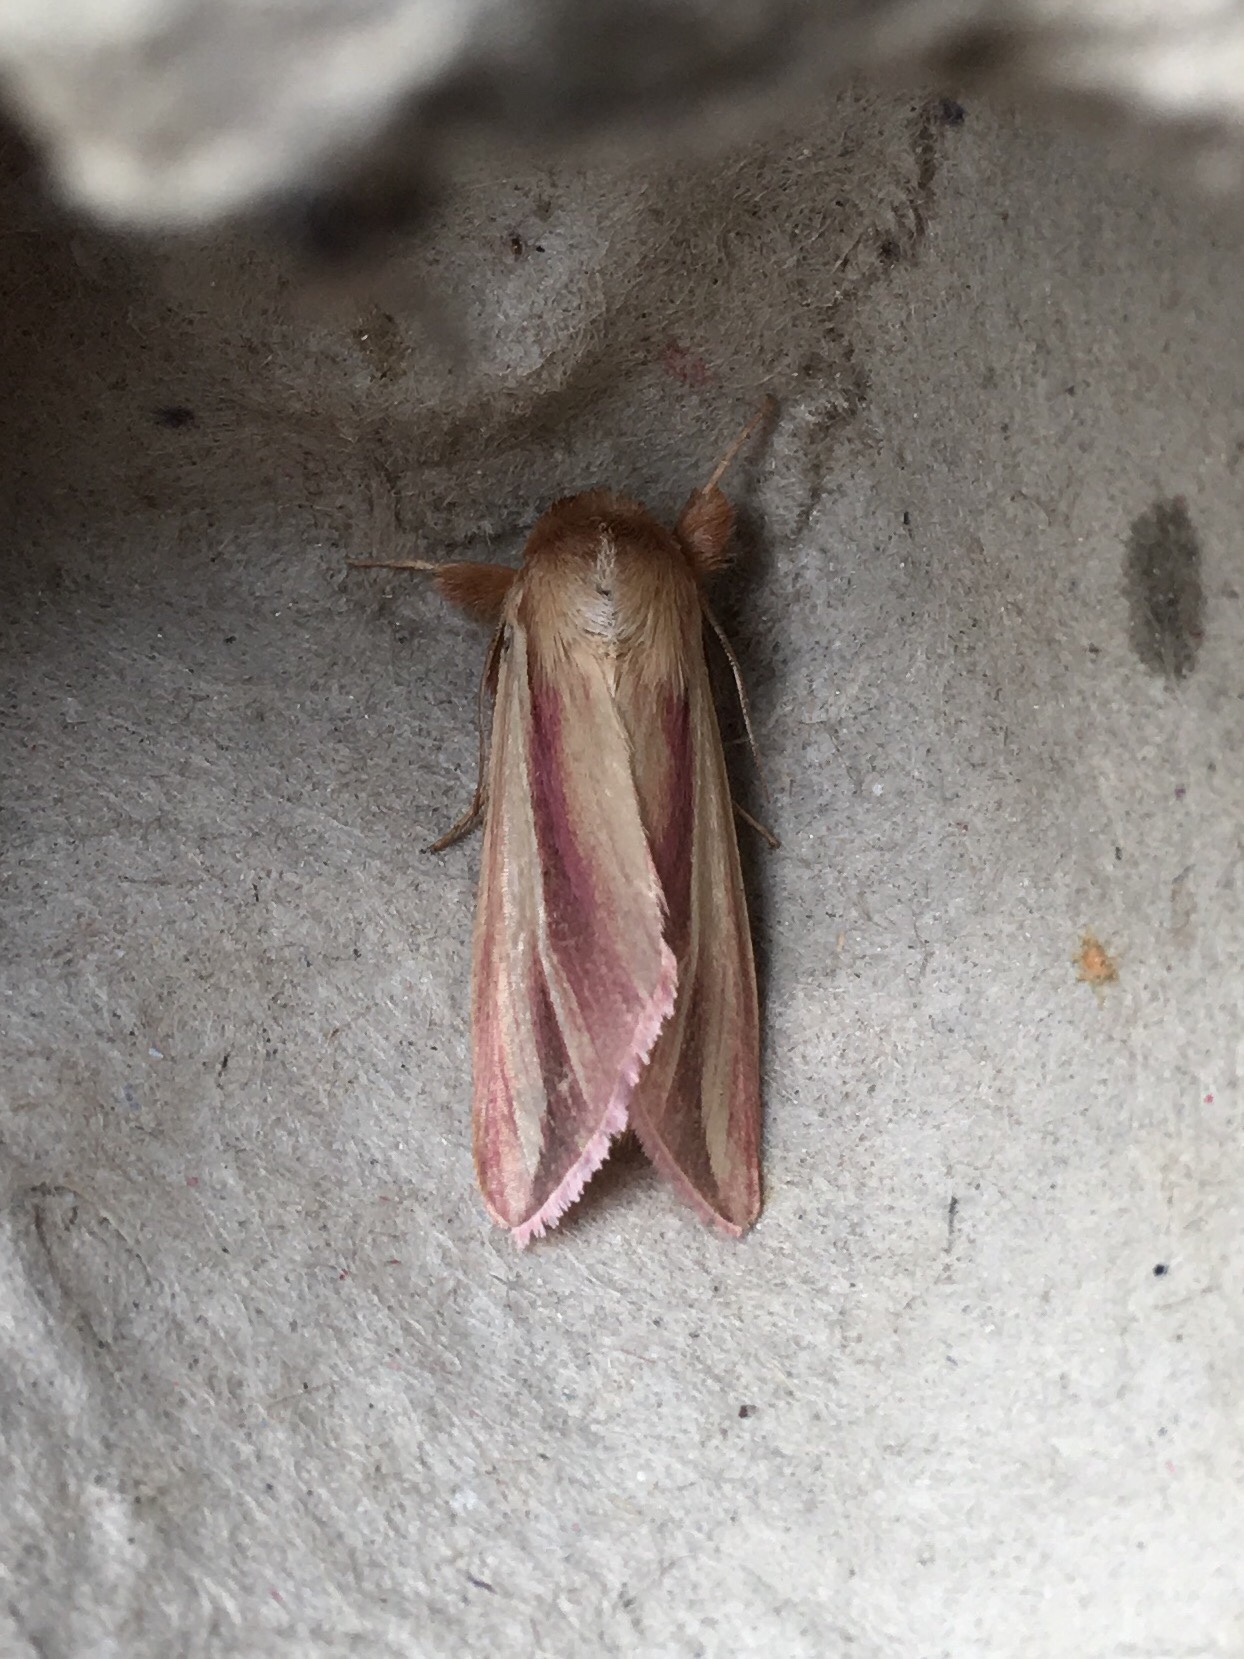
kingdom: Animalia
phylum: Arthropoda
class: Insecta
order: Lepidoptera
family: Noctuidae
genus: Dargida
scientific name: Dargida rubripennis
